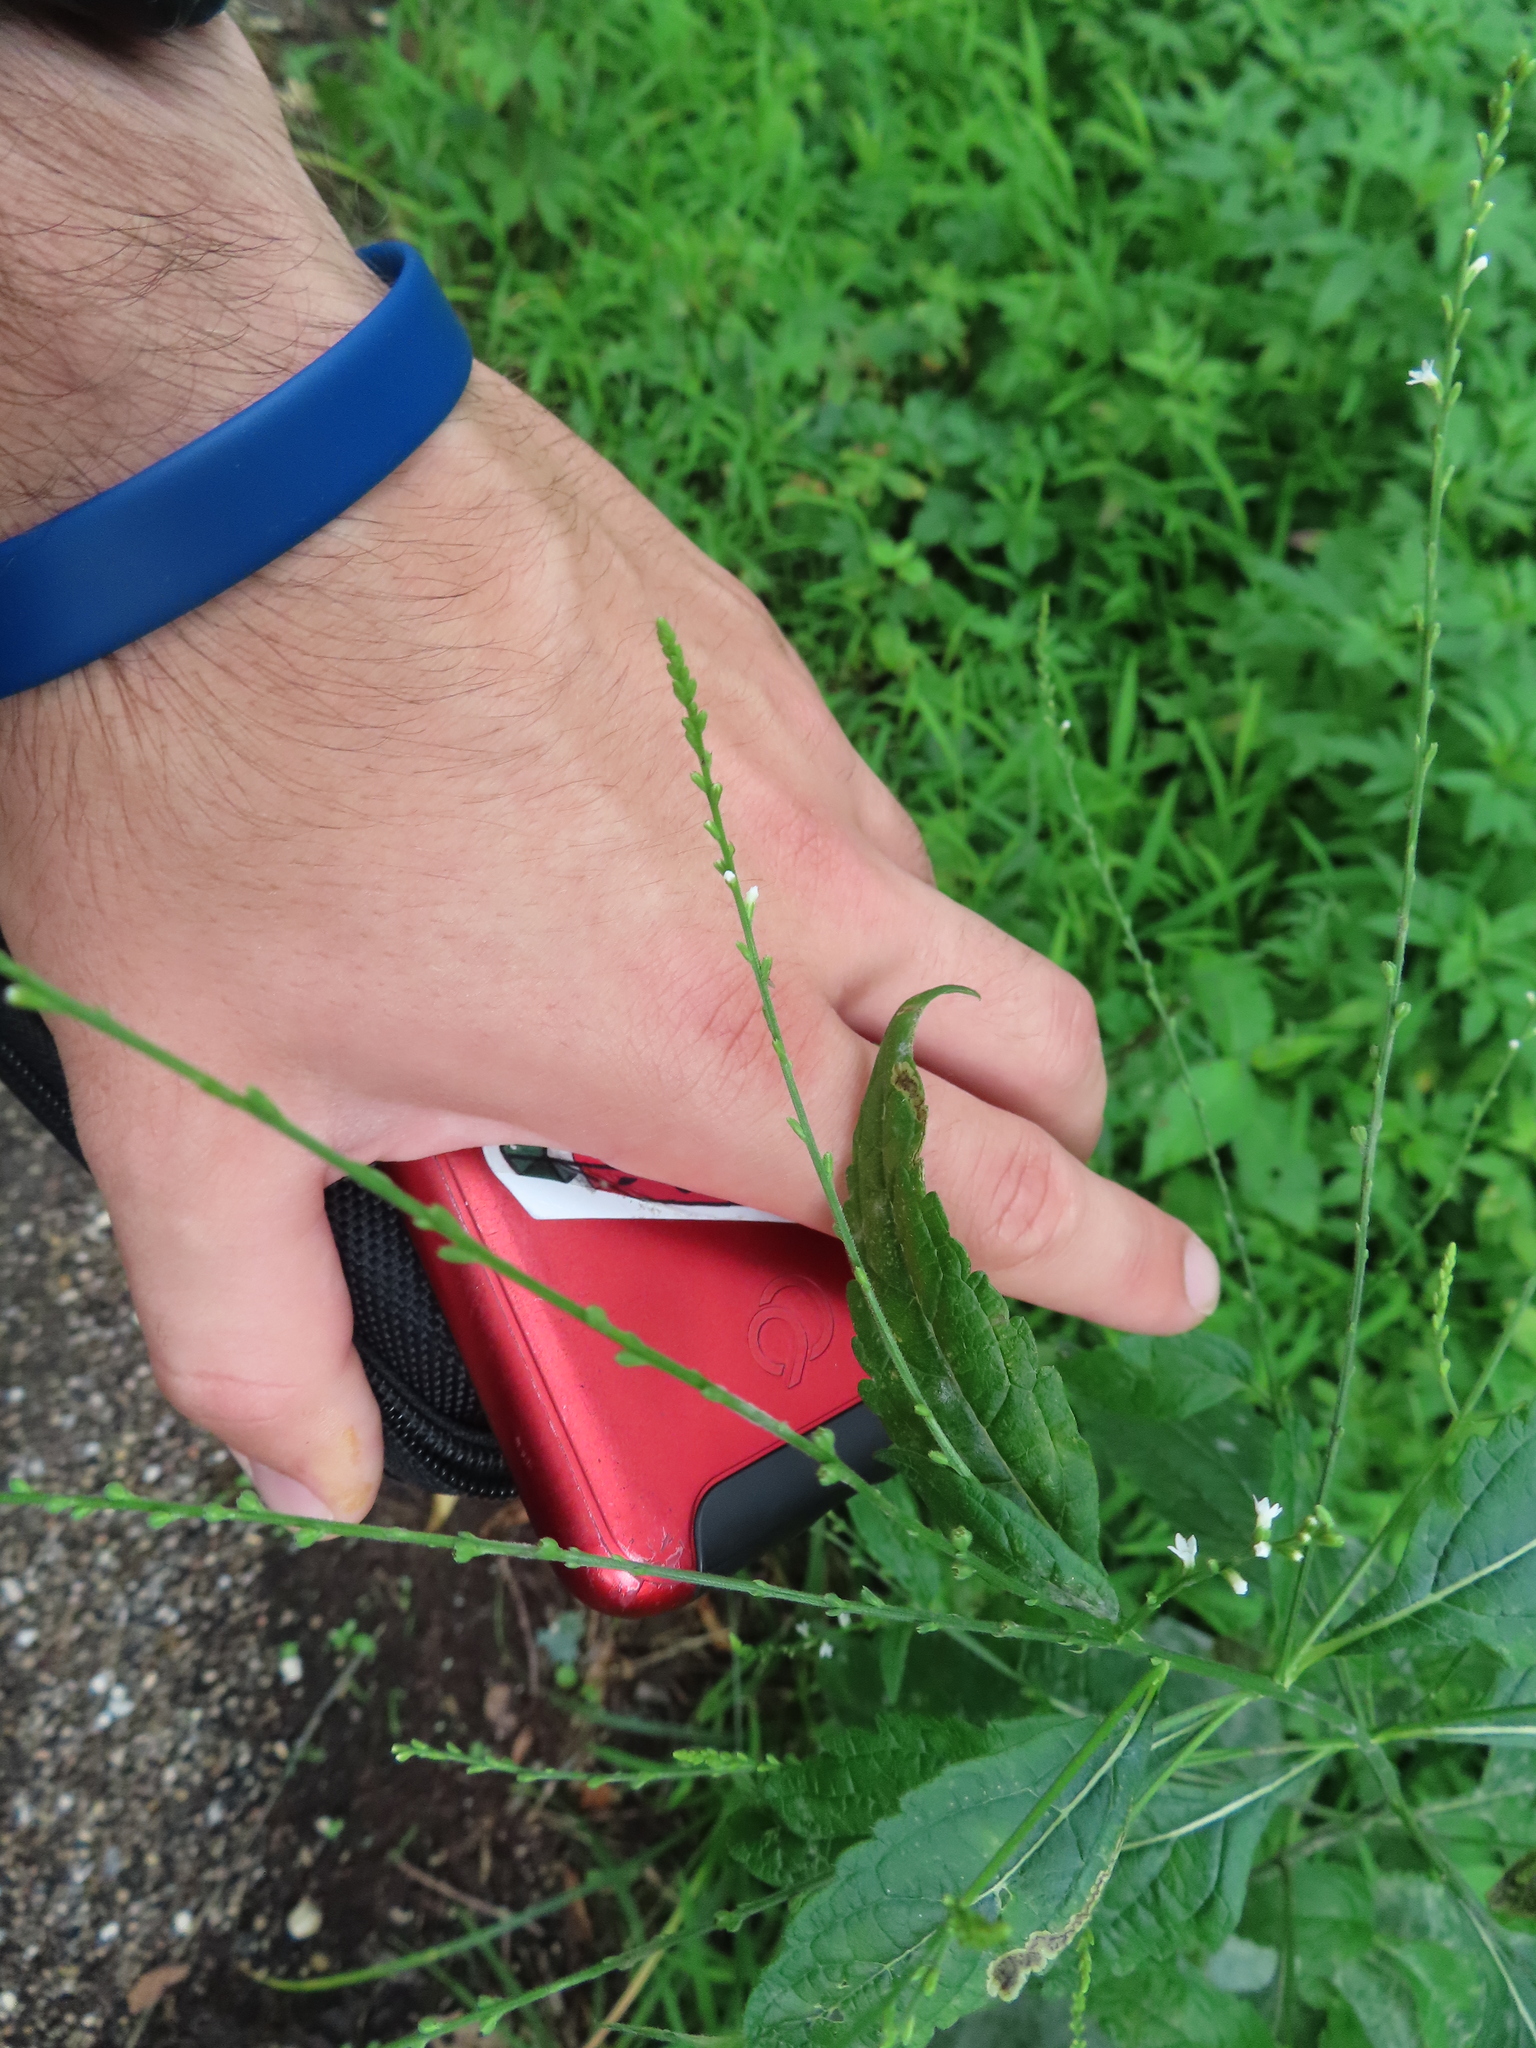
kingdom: Plantae
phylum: Tracheophyta
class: Magnoliopsida
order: Lamiales
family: Verbenaceae
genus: Verbena
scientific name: Verbena urticifolia
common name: Nettle-leaved vervain
